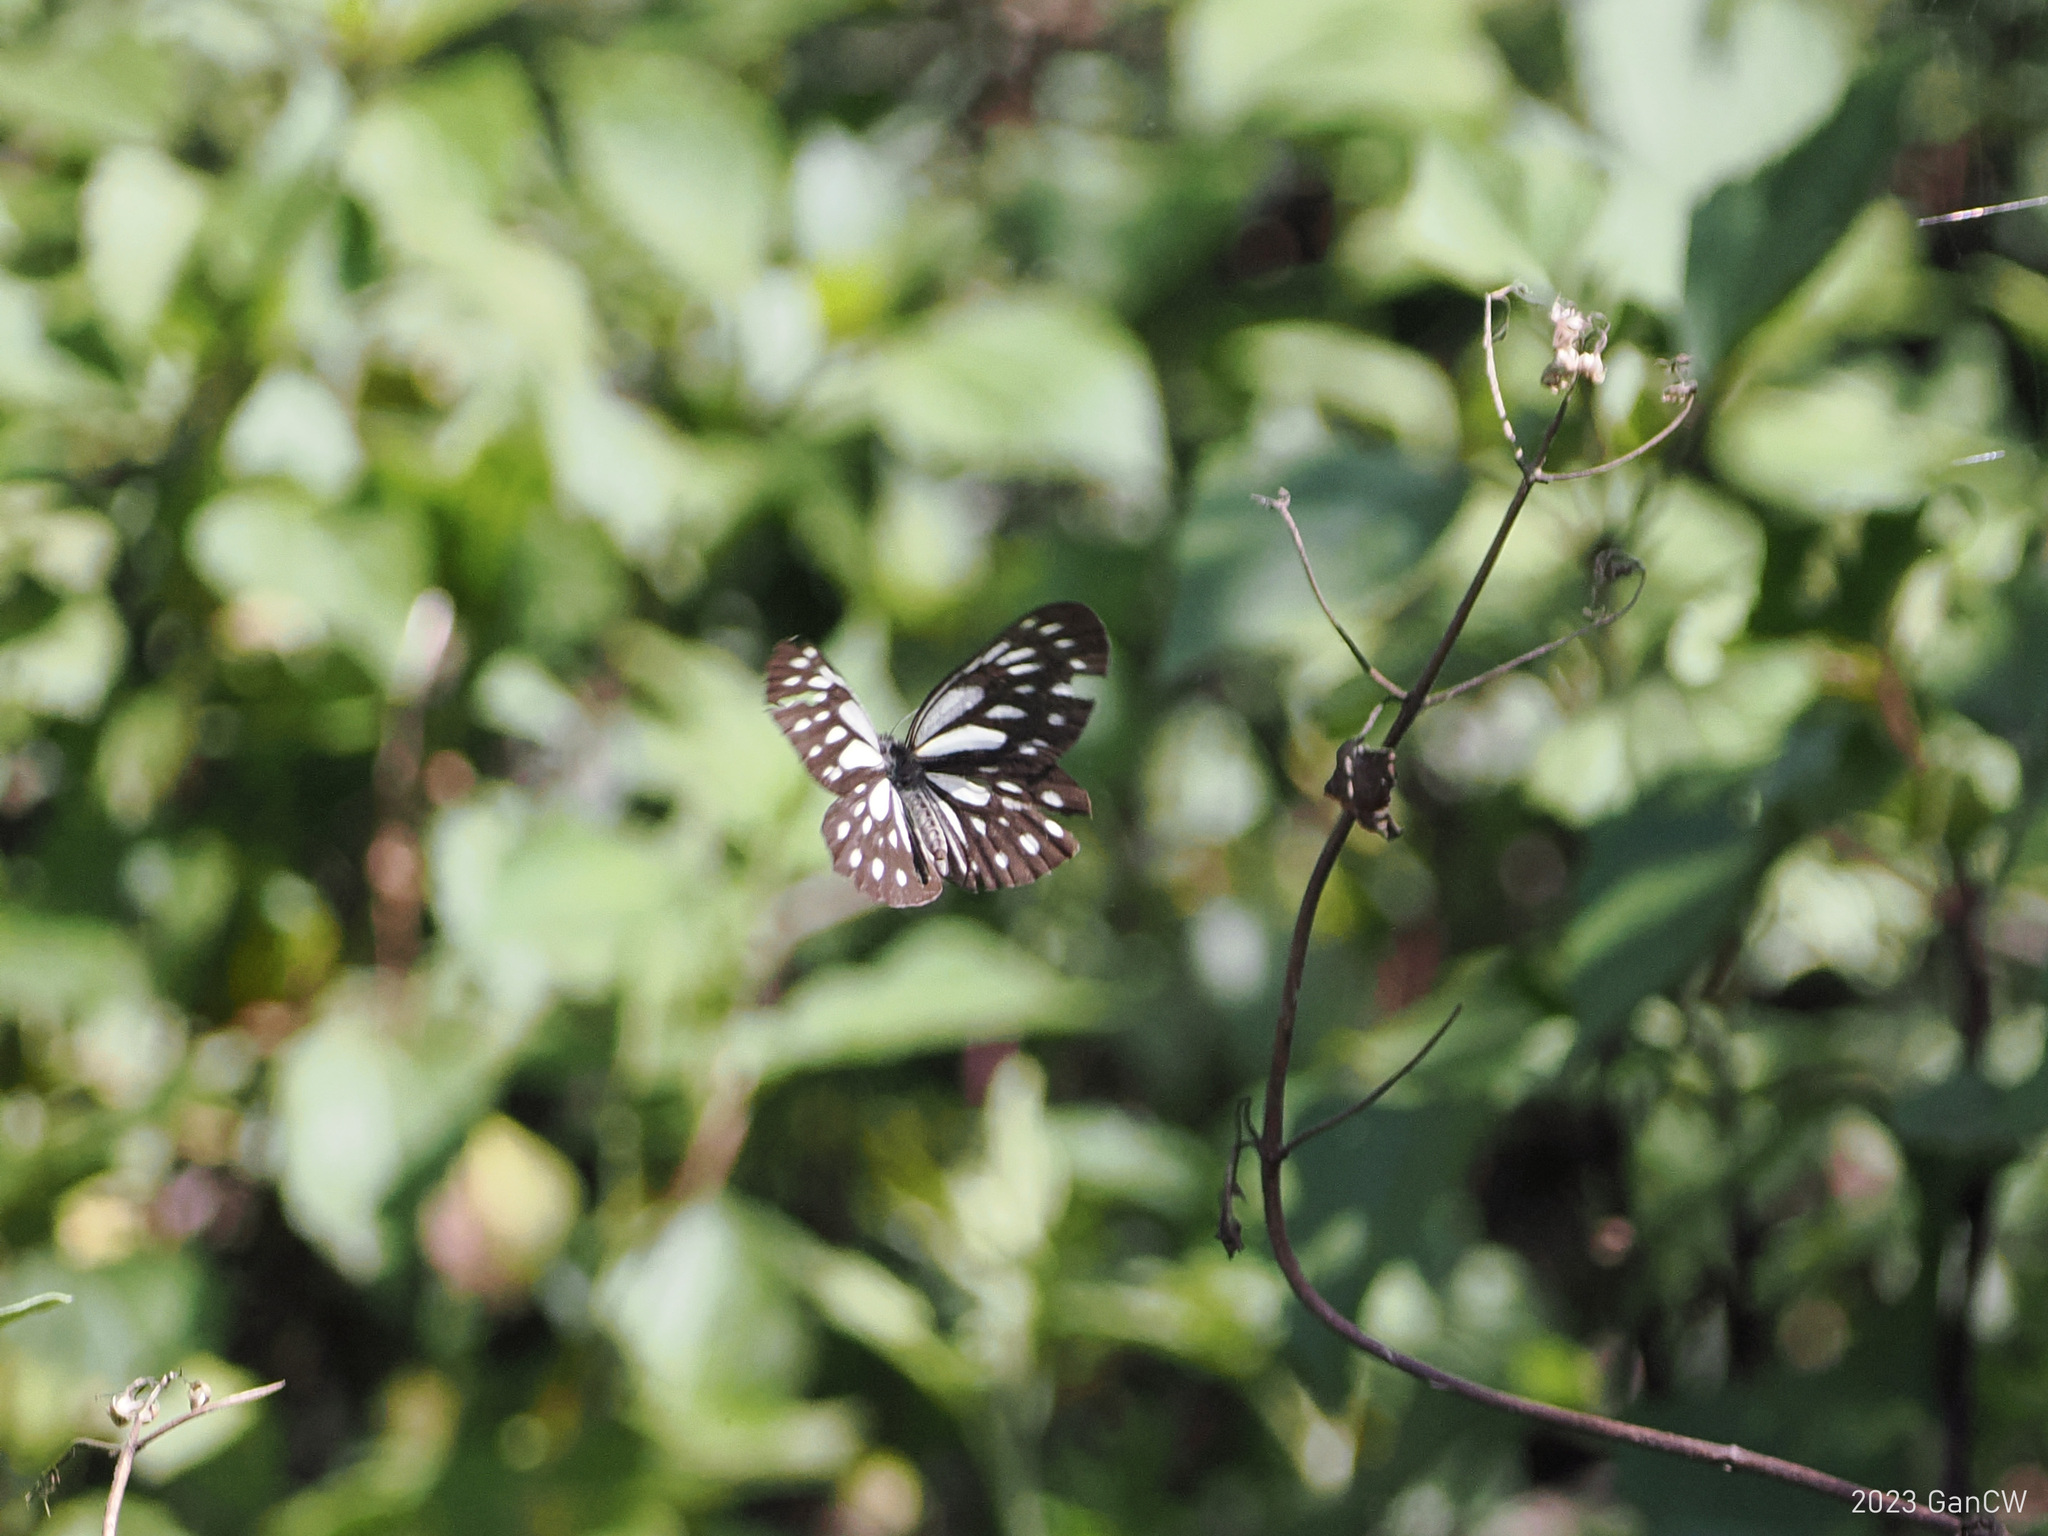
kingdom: Animalia
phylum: Arthropoda
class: Insecta
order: Lepidoptera
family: Pieridae
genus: Aporia
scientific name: Aporia agathon
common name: Great blackvein
